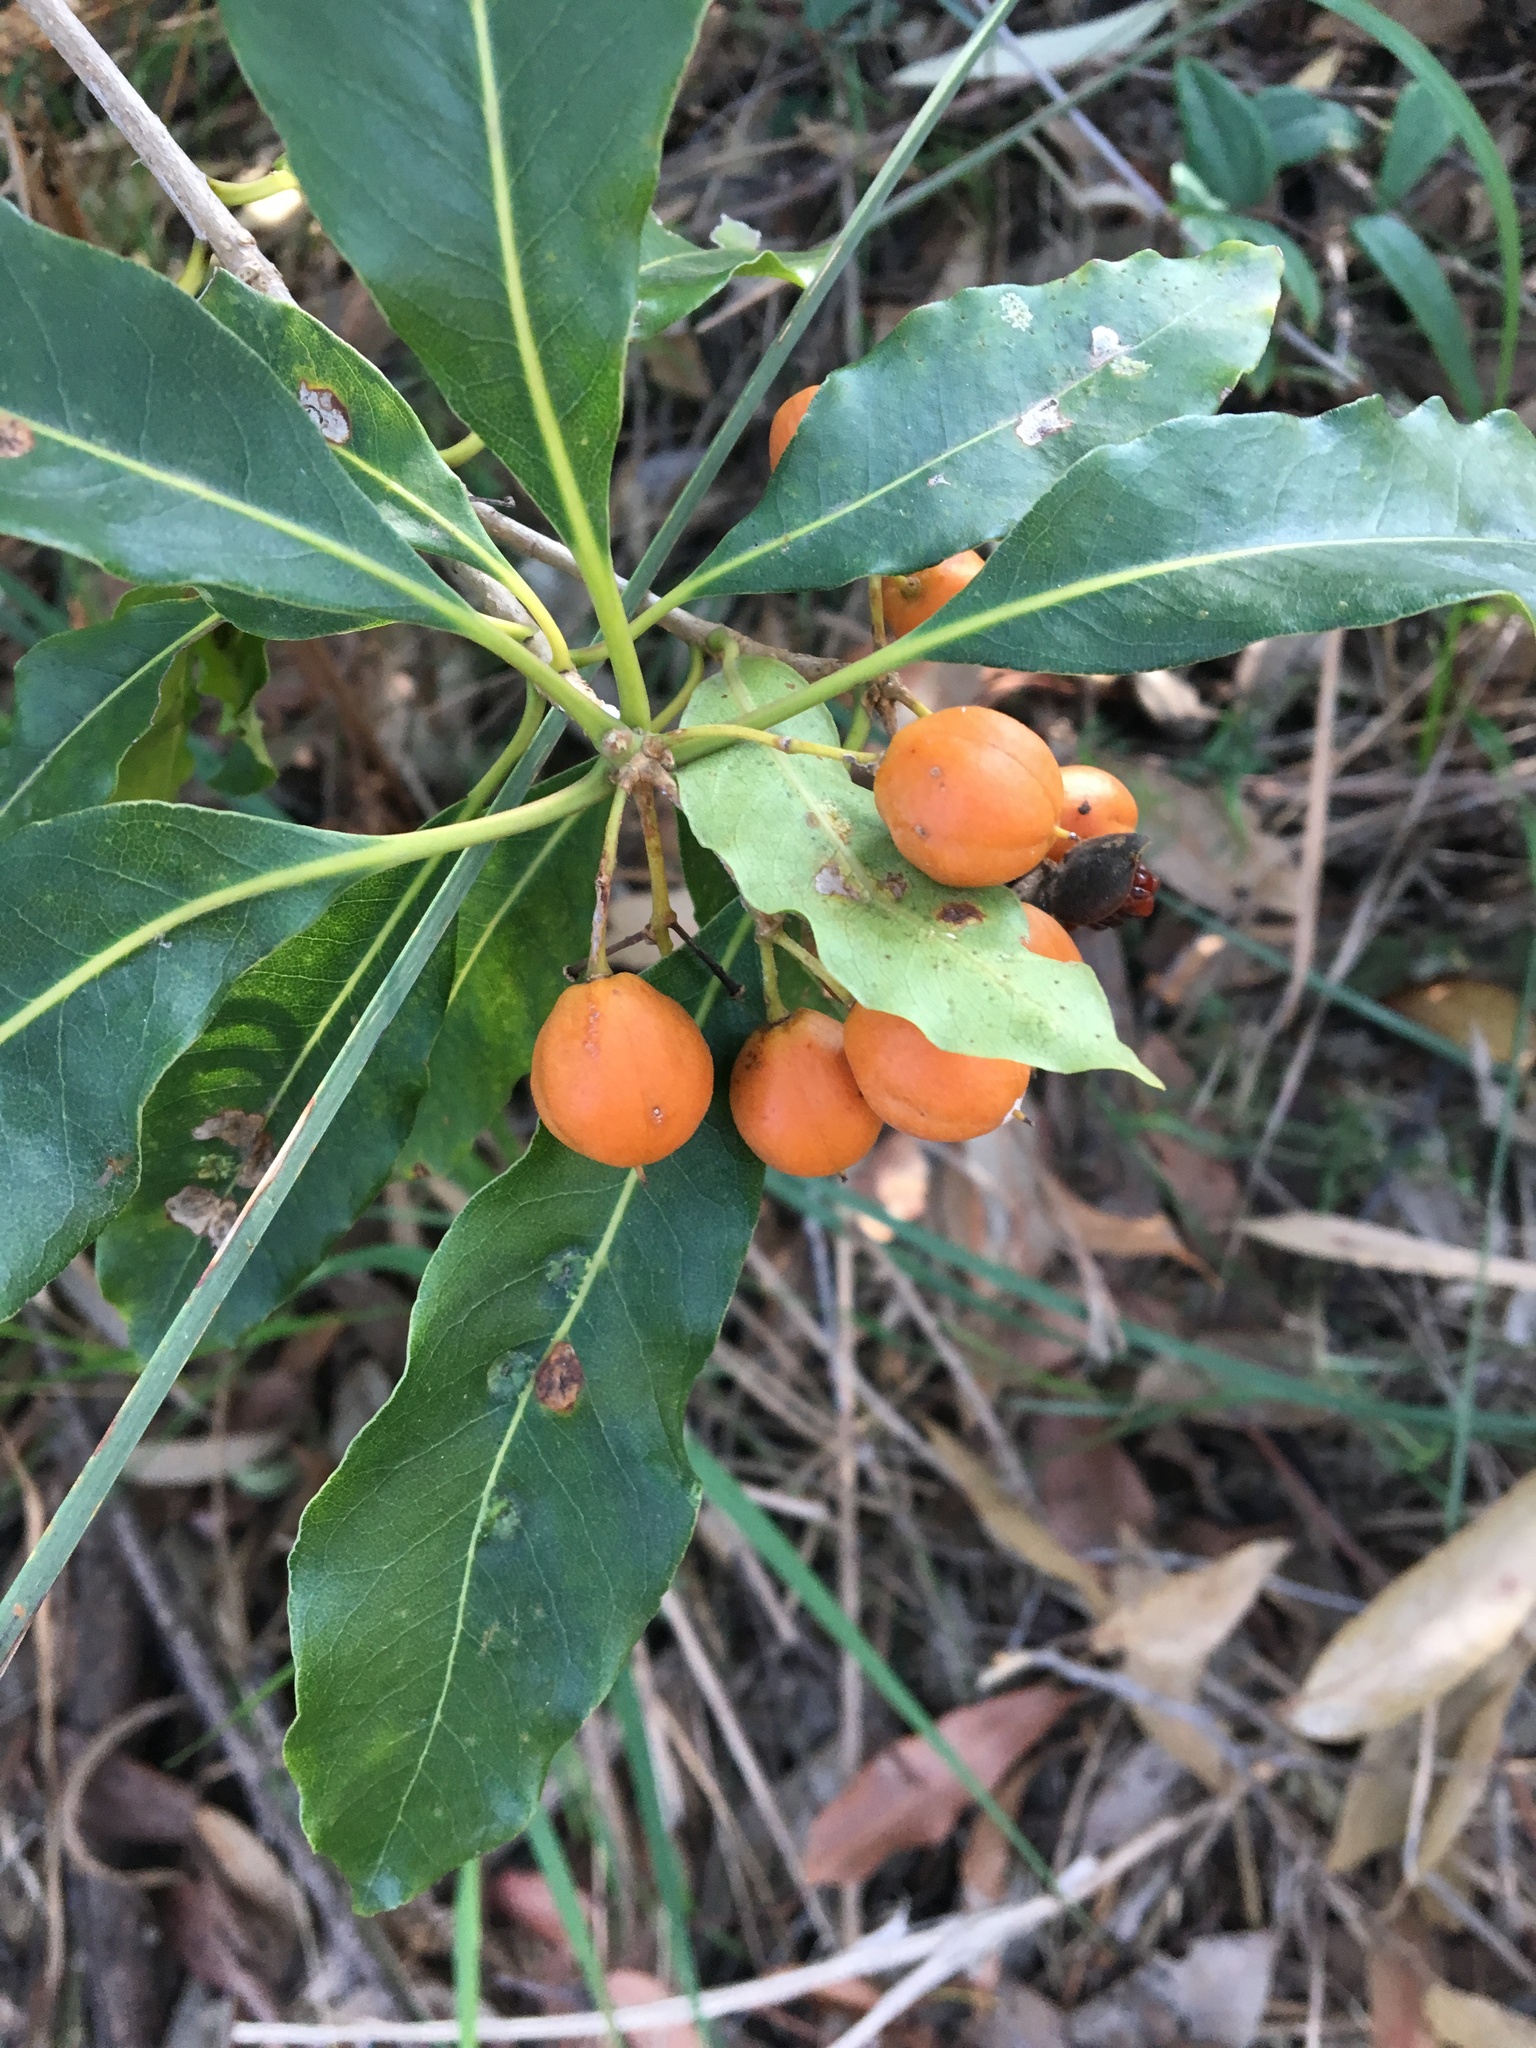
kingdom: Plantae
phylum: Tracheophyta
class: Magnoliopsida
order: Apiales
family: Pittosporaceae
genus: Pittosporum
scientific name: Pittosporum undulatum
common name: Australian cheesewood
